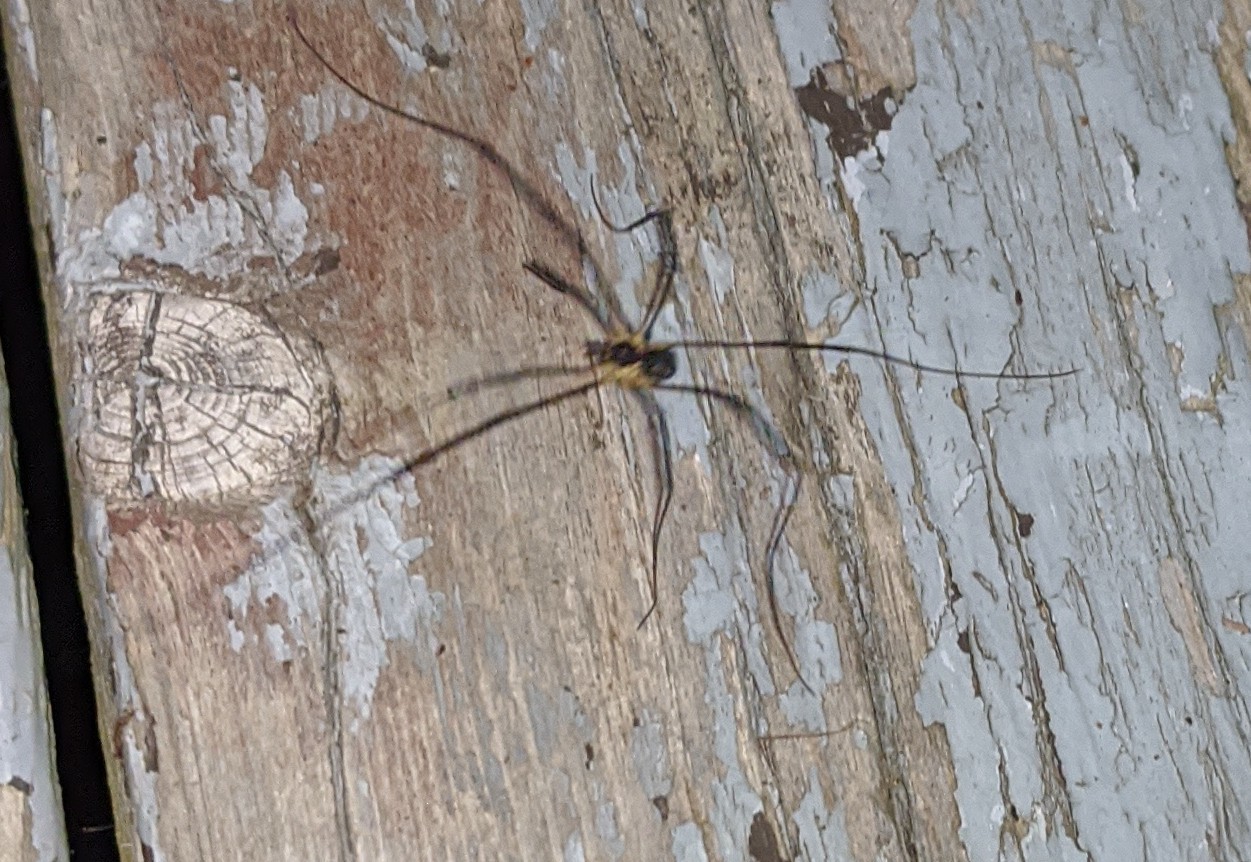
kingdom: Animalia
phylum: Arthropoda
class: Arachnida
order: Opiliones
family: Phalangiidae
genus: Mitopus
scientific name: Mitopus morio
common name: Saddleback harvestman
